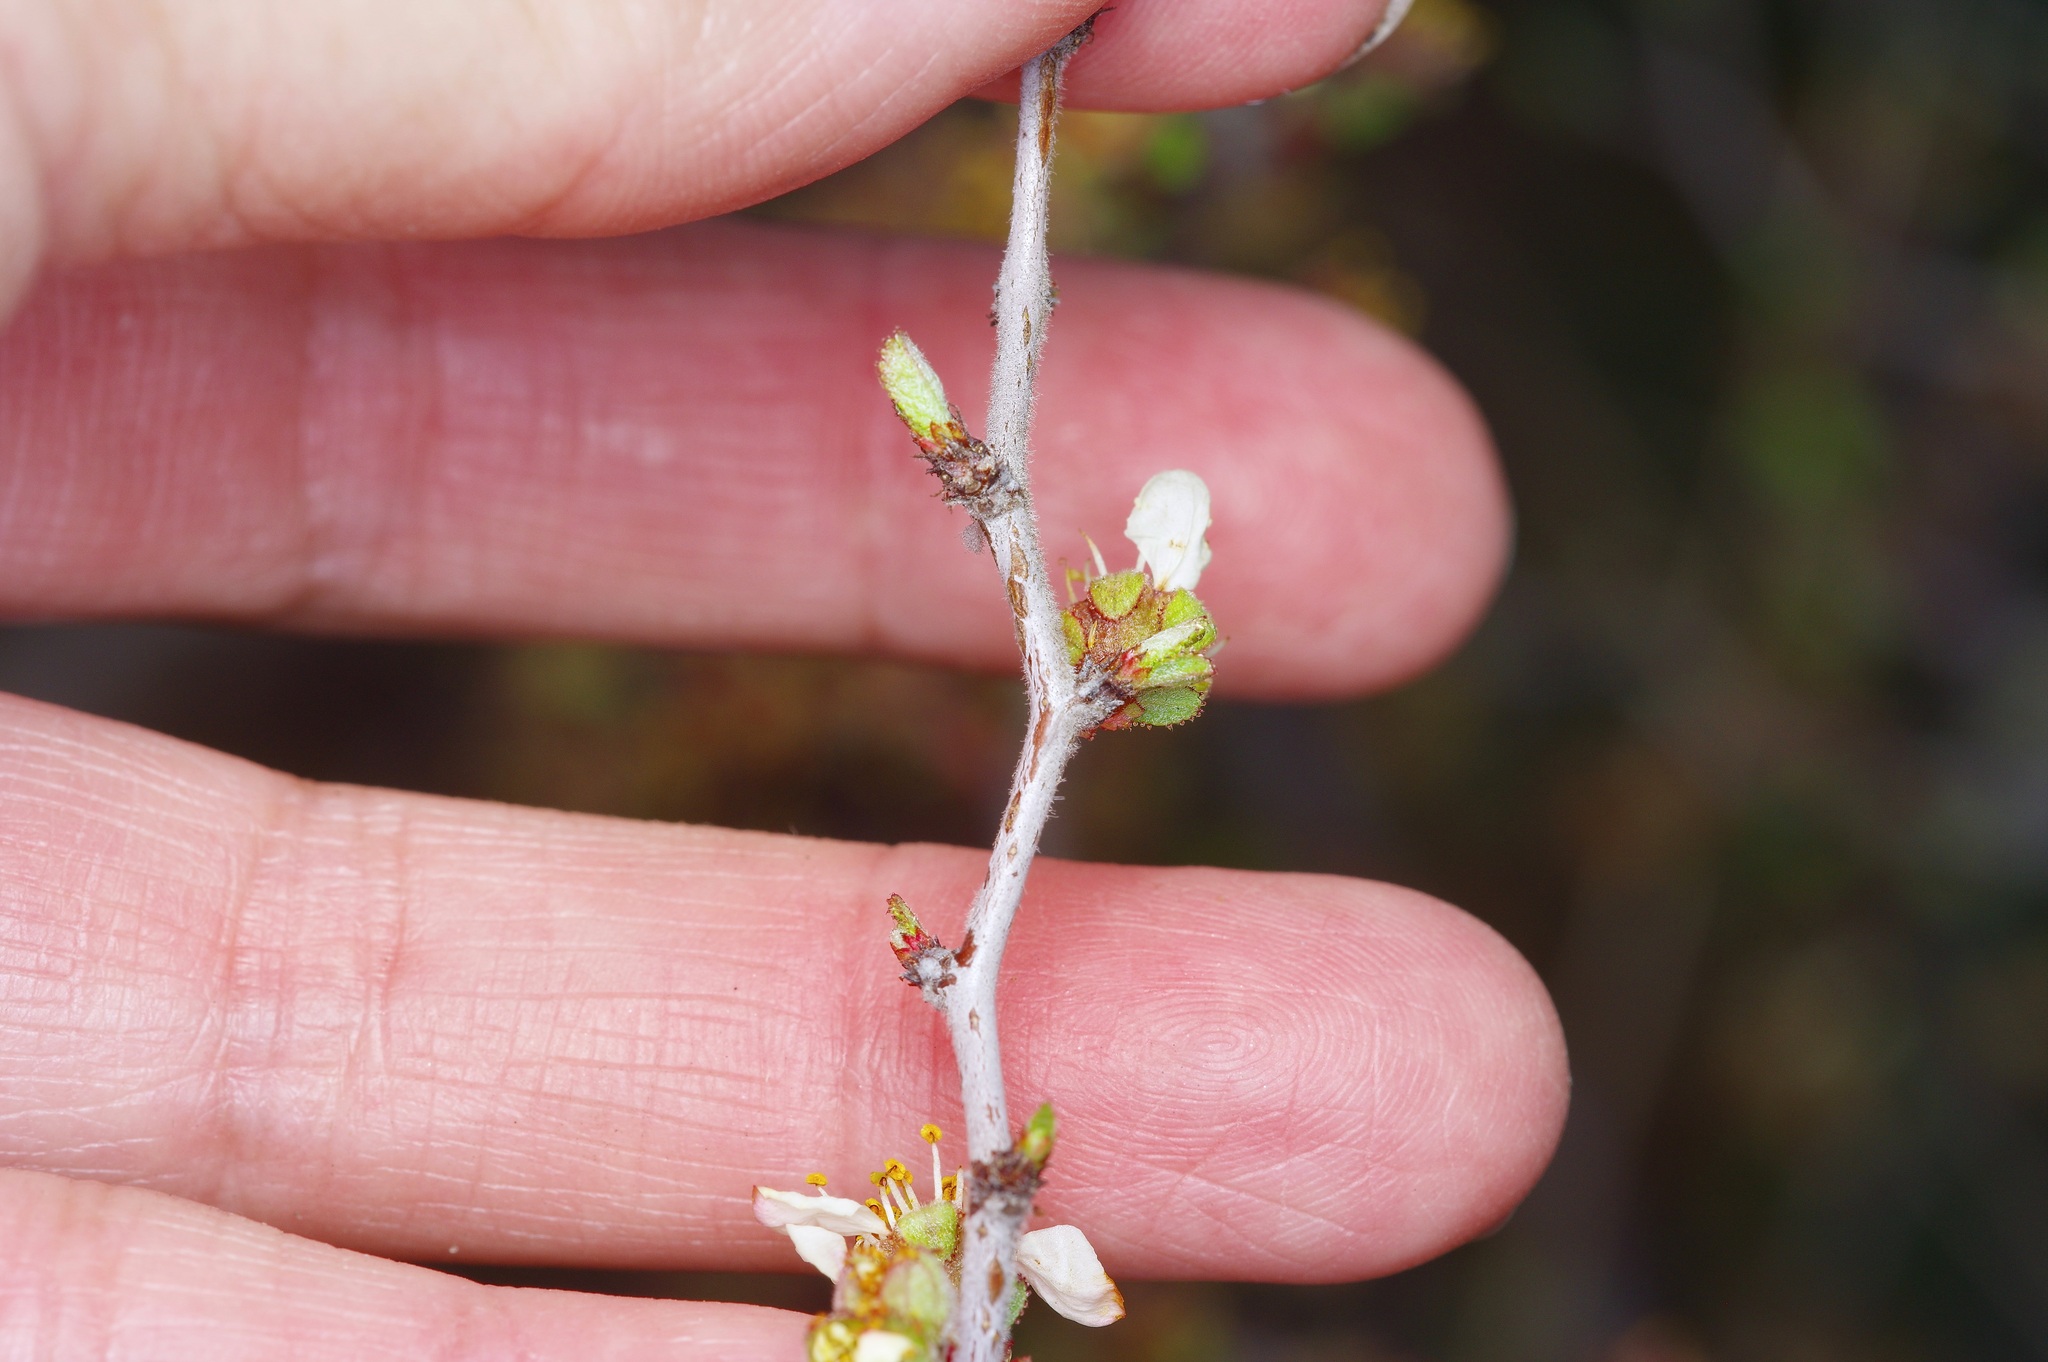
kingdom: Plantae
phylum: Tracheophyta
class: Magnoliopsida
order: Rosales
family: Rosaceae
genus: Prunus
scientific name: Prunus texana
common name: Texas almond cherry
